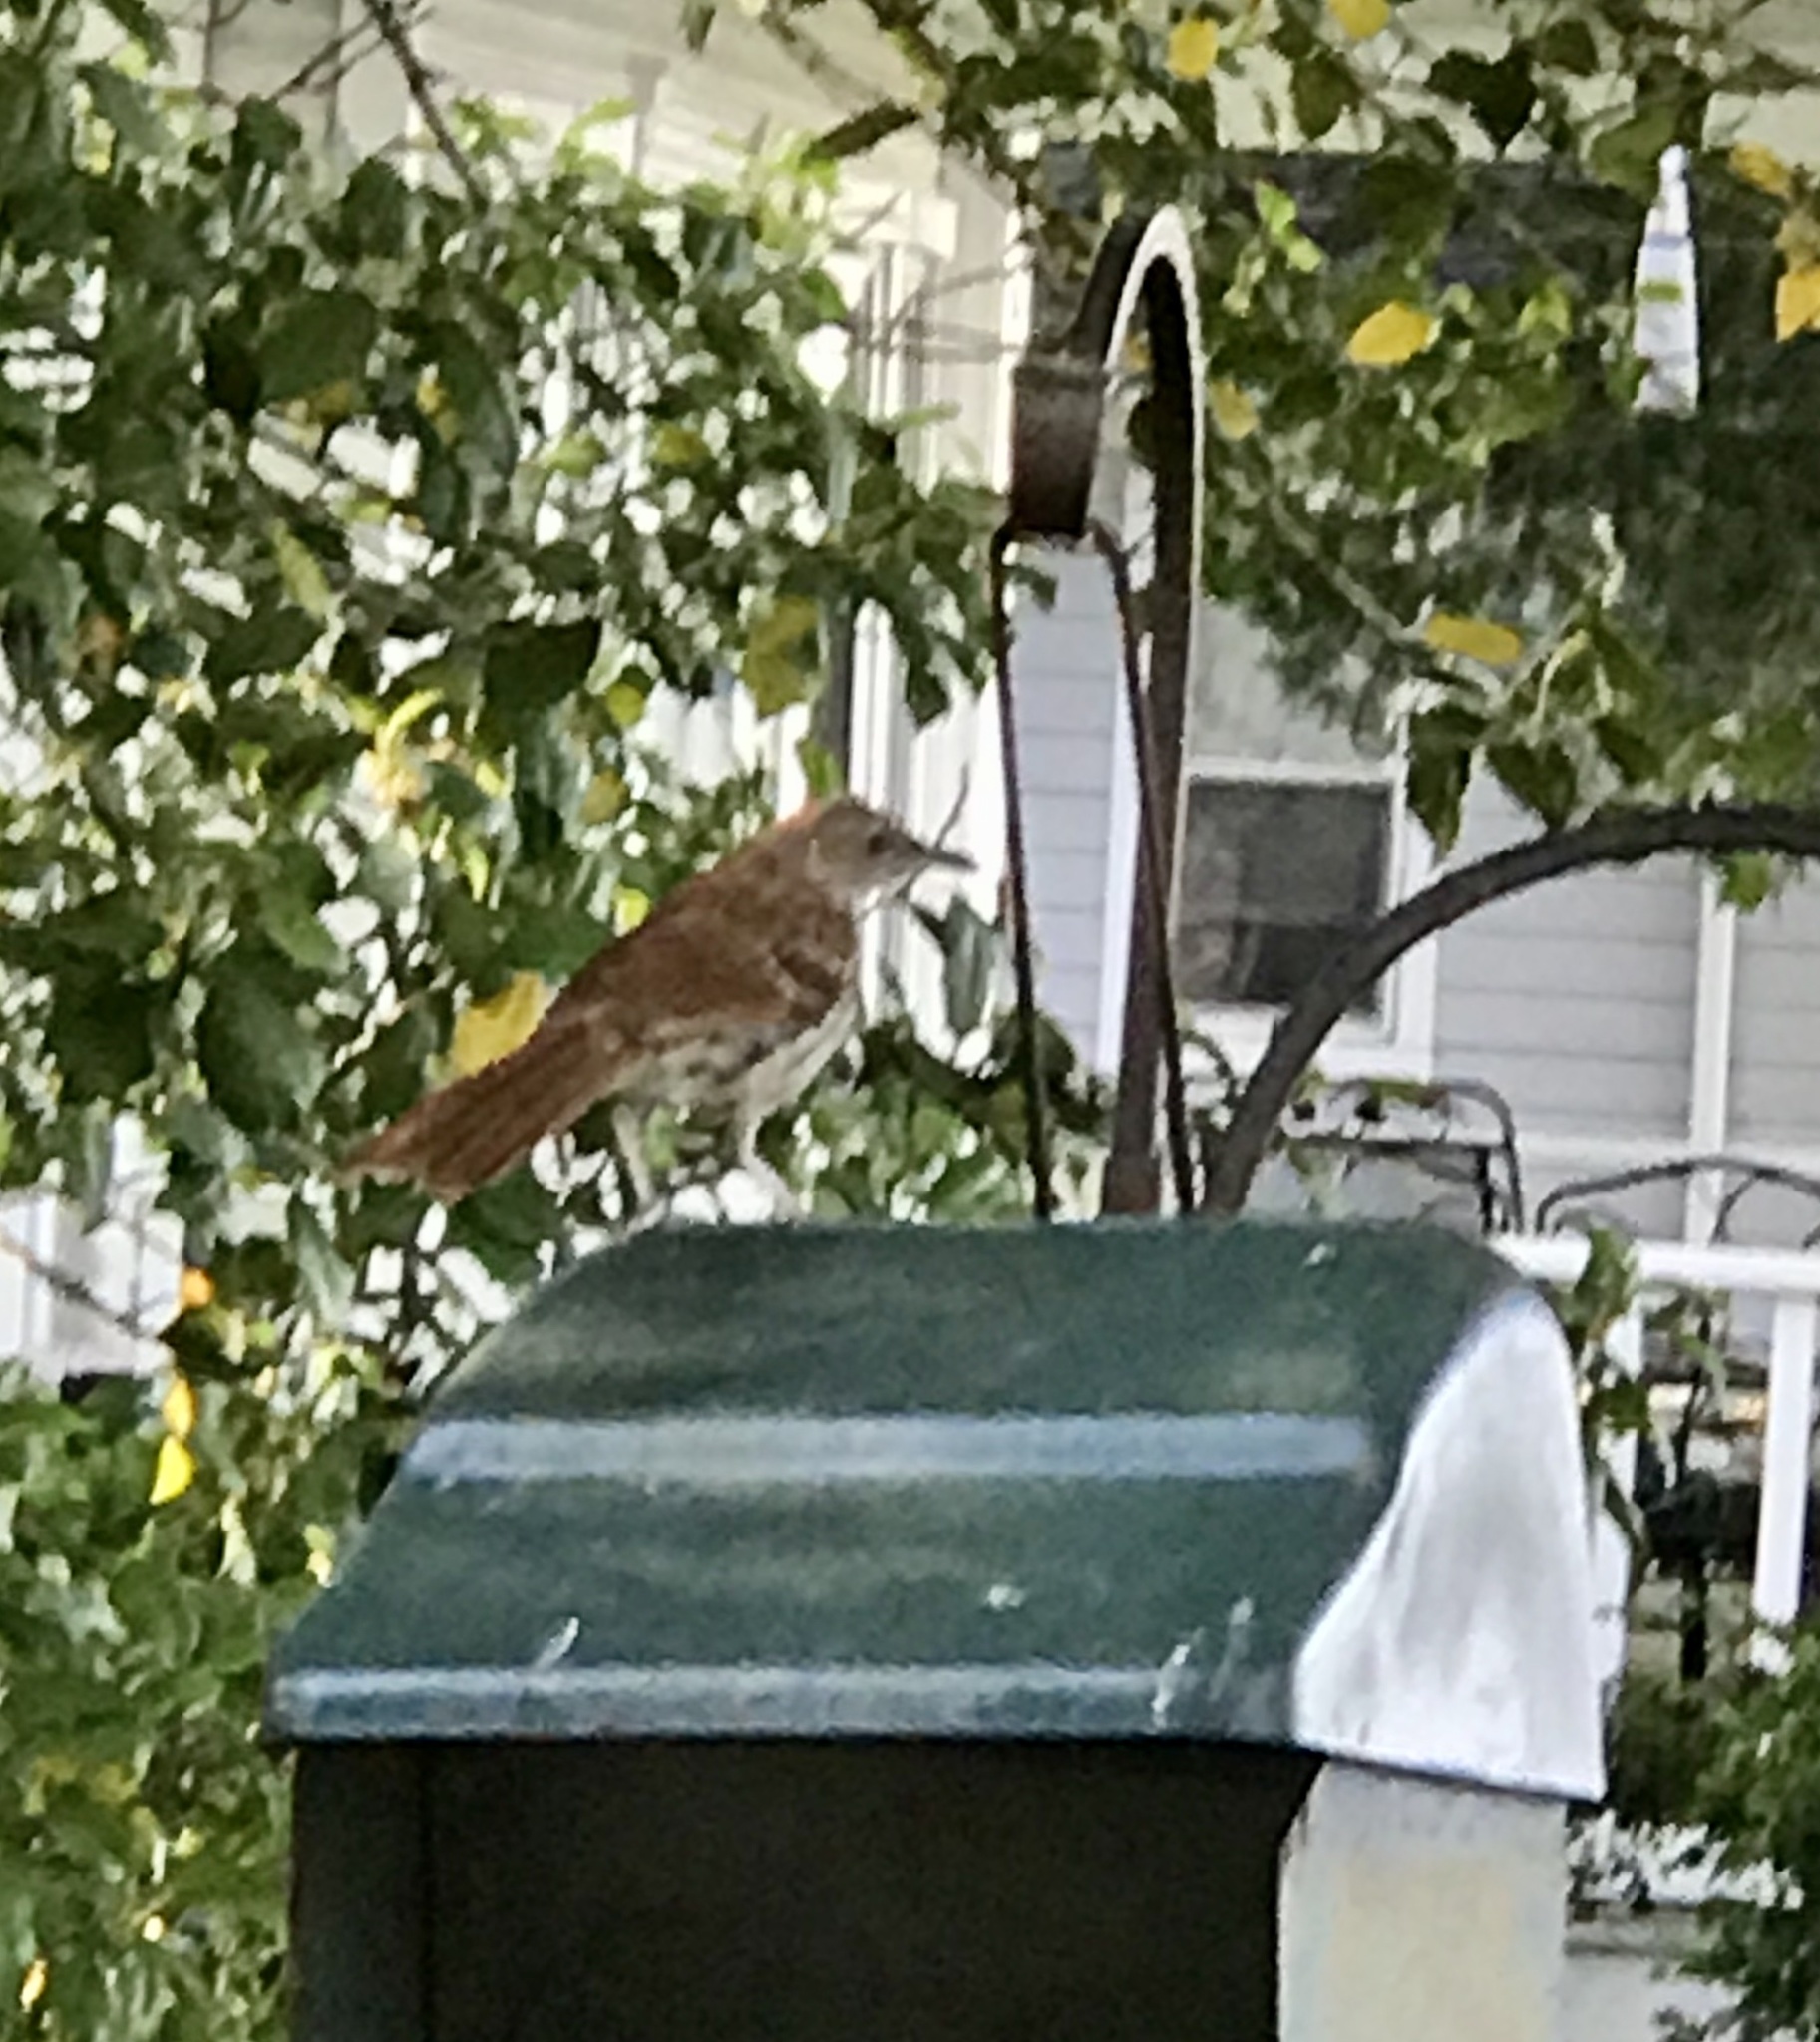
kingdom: Animalia
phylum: Chordata
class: Aves
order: Passeriformes
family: Mimidae
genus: Toxostoma
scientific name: Toxostoma rufum
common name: Brown thrasher
